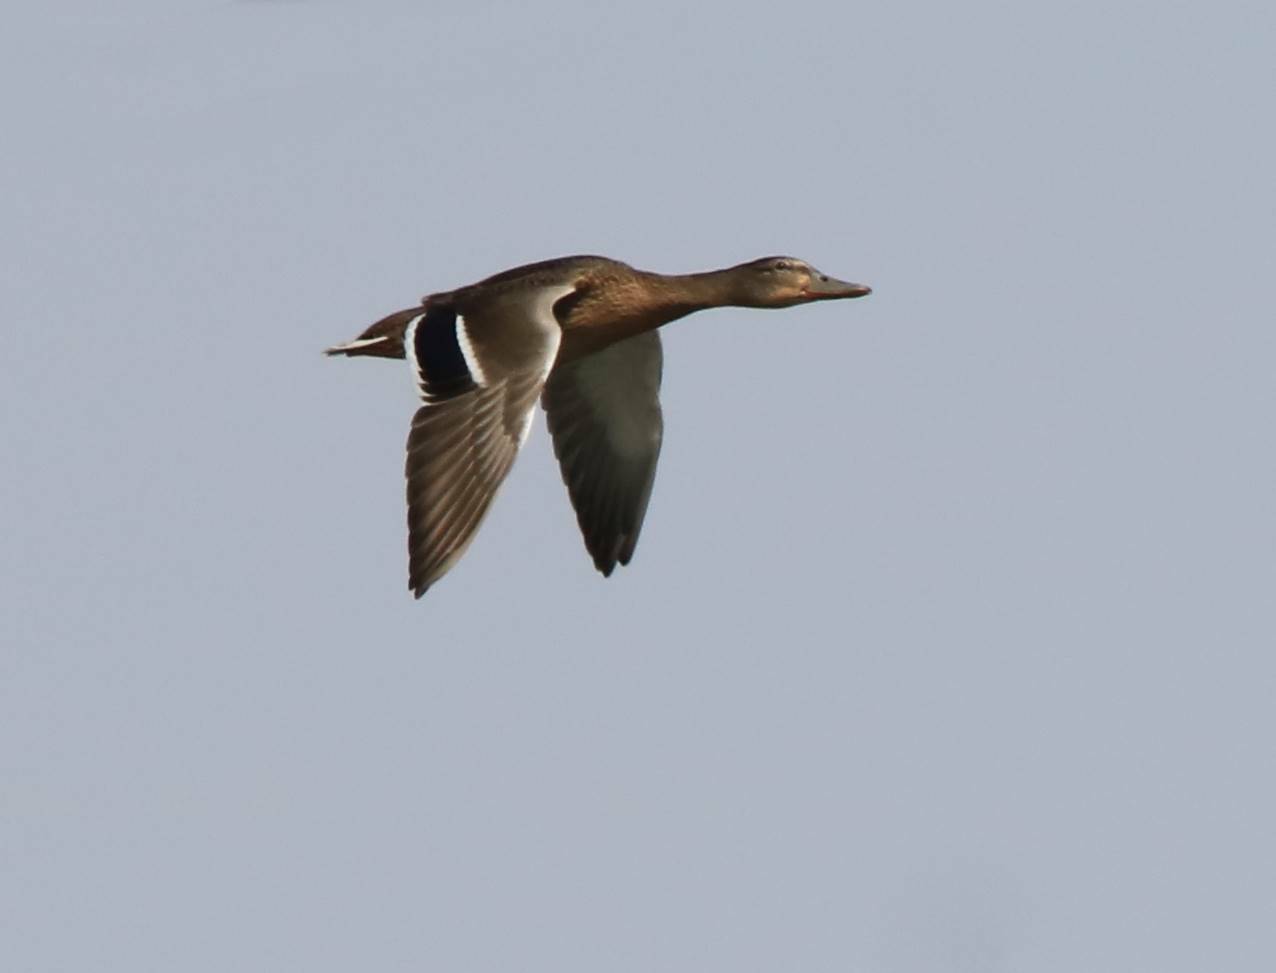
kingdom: Animalia
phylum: Chordata
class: Aves
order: Anseriformes
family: Anatidae
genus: Anas
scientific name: Anas platyrhynchos
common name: Mallard
